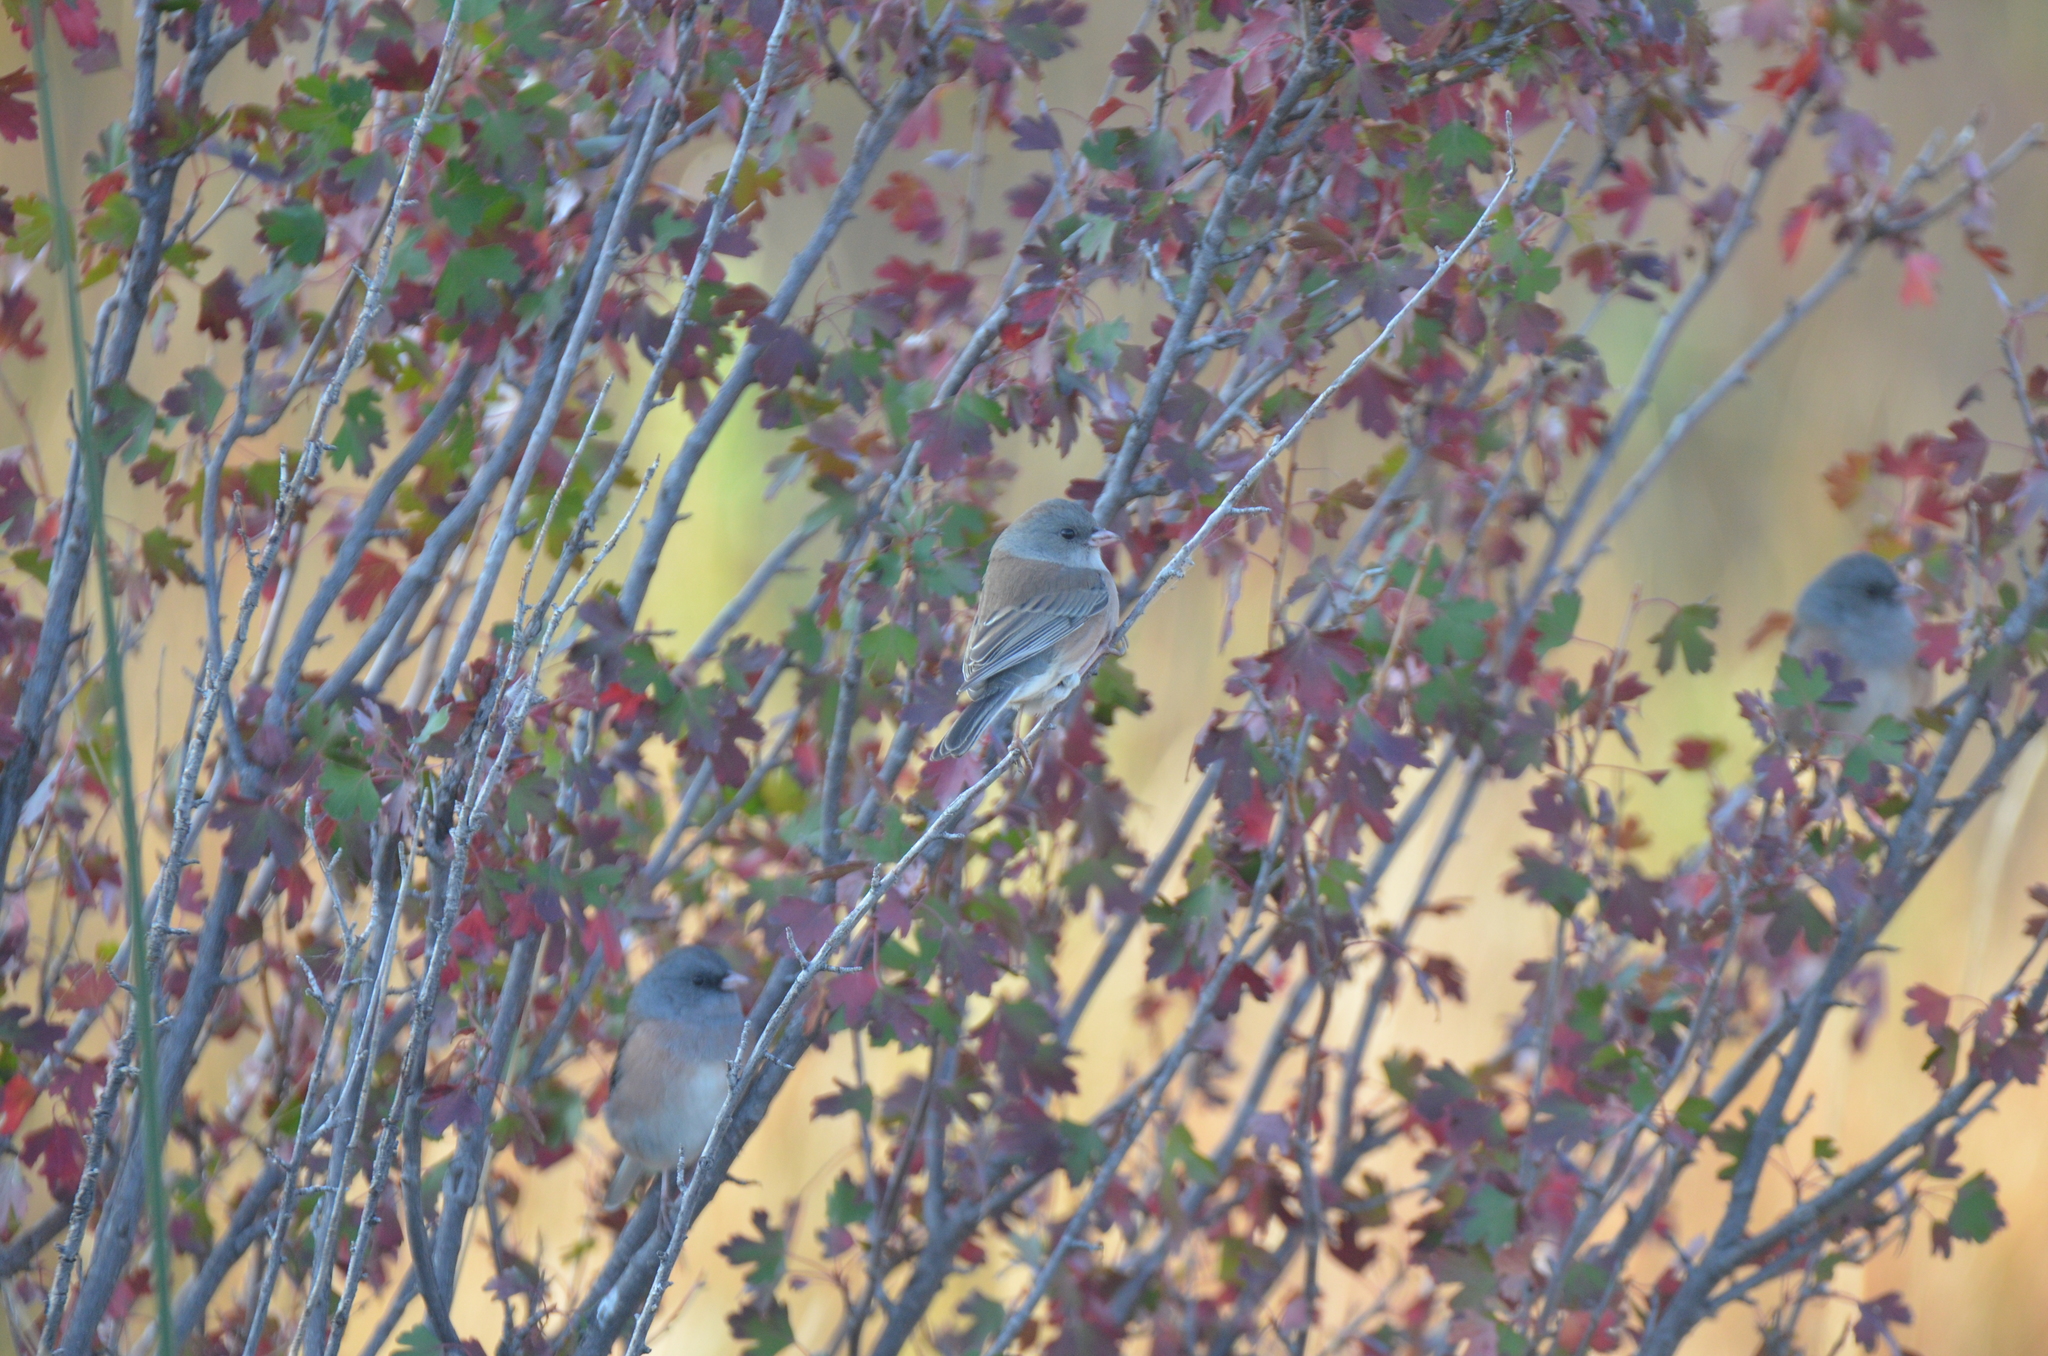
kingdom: Animalia
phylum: Chordata
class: Aves
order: Passeriformes
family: Passerellidae
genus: Junco
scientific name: Junco hyemalis
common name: Dark-eyed junco
